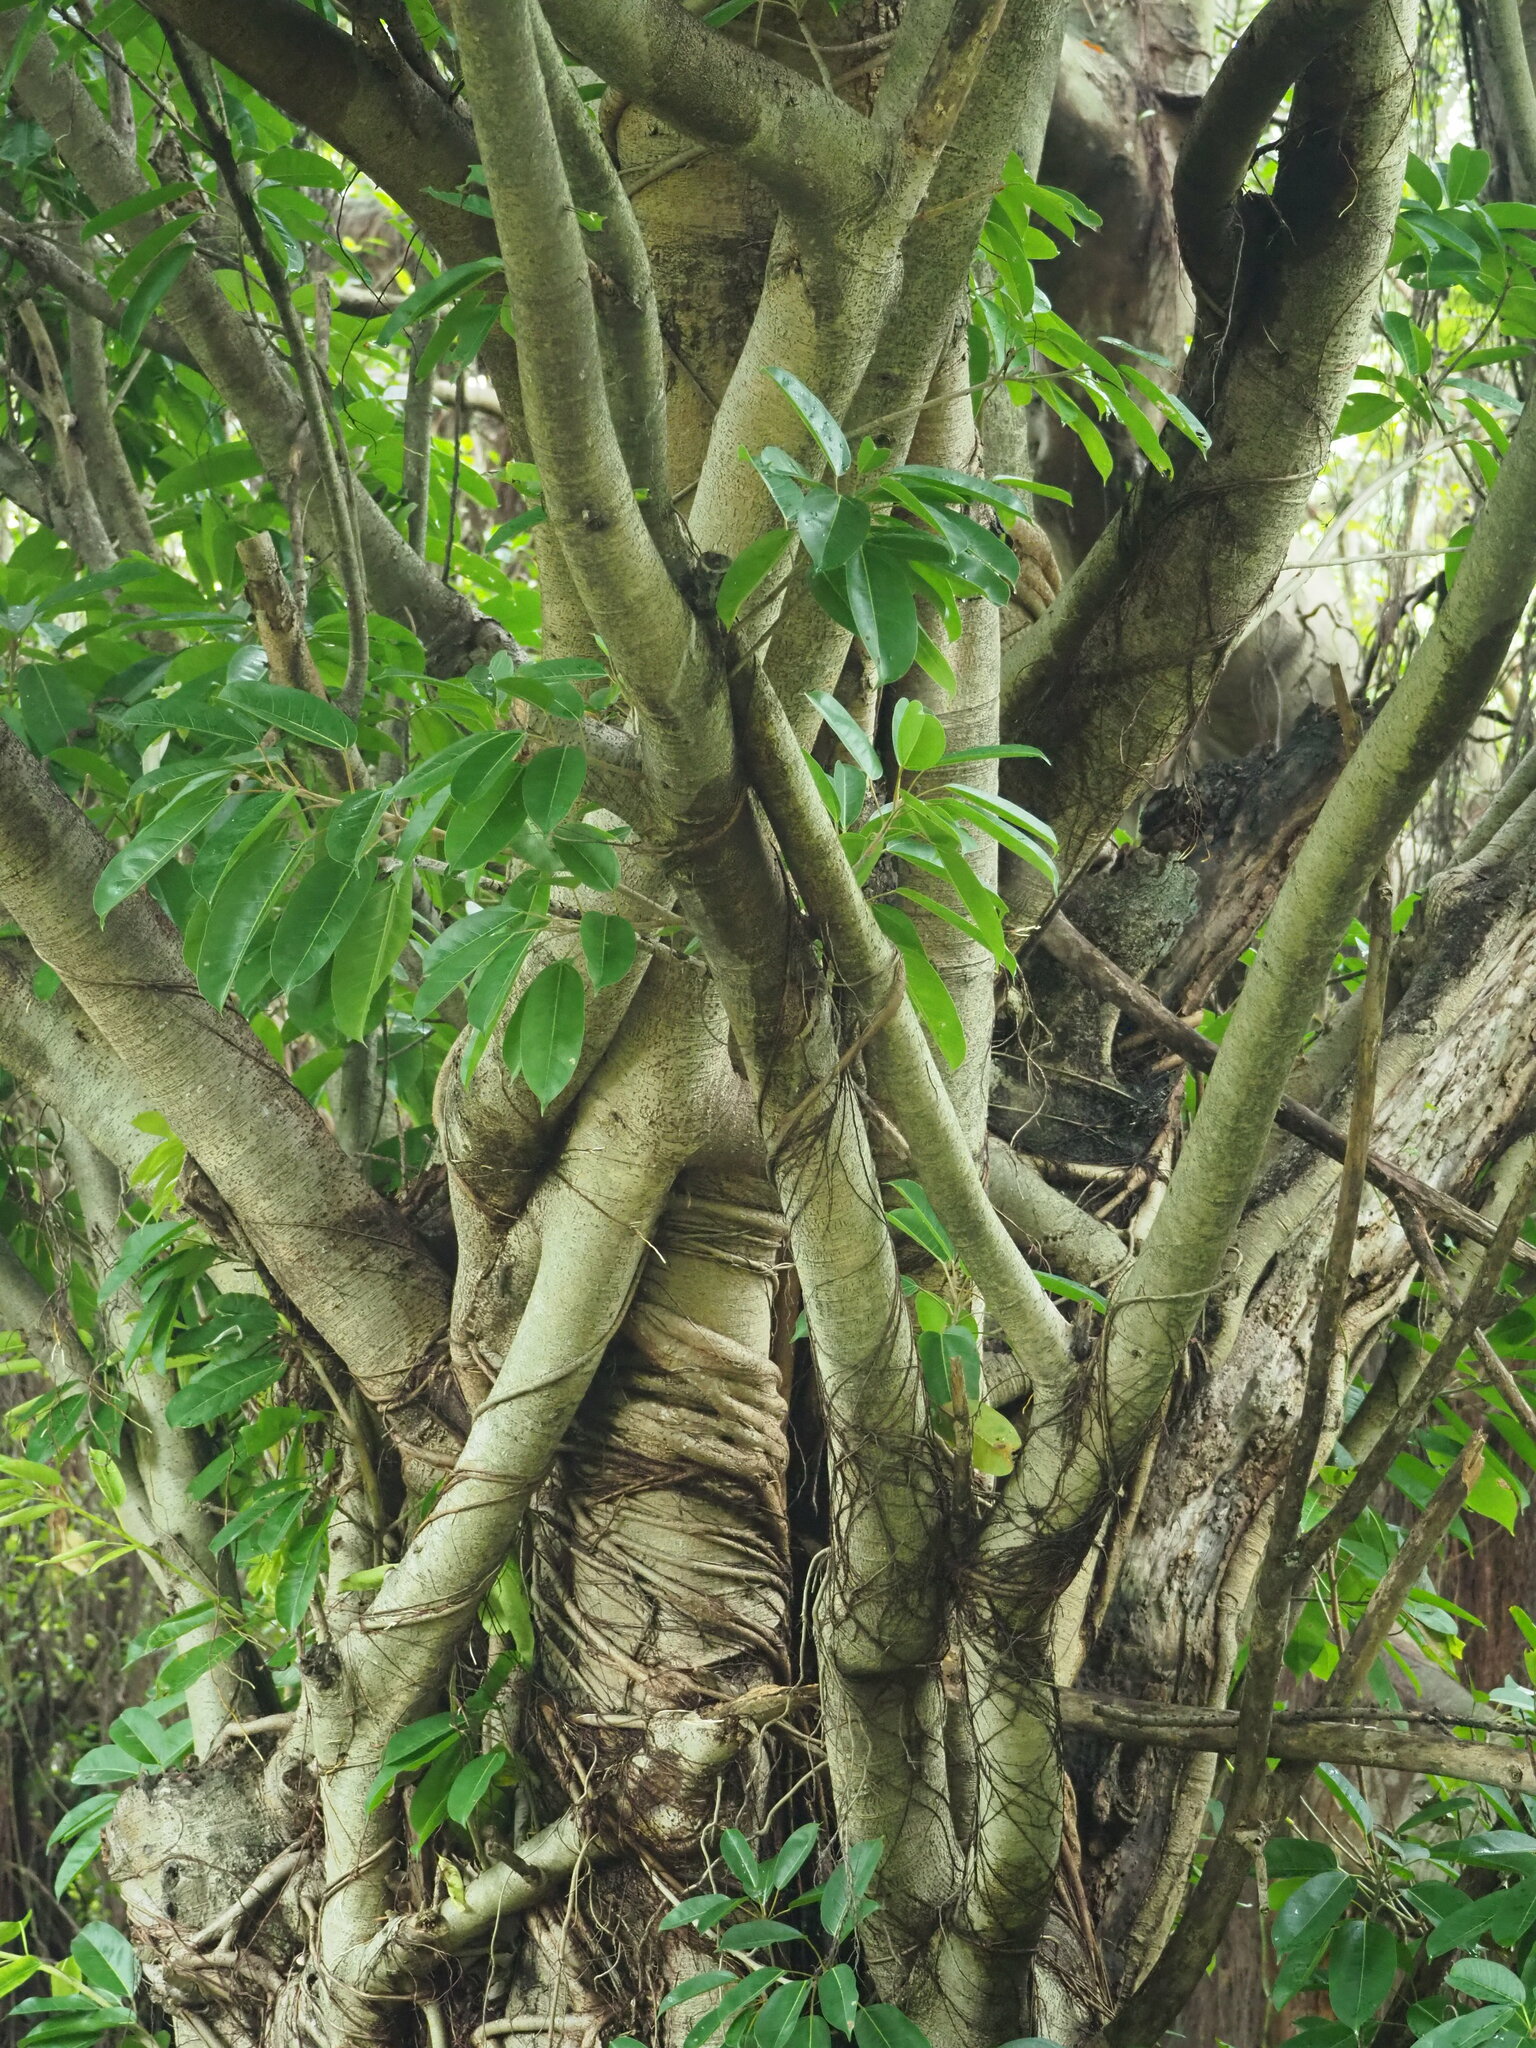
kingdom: Plantae
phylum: Tracheophyta
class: Magnoliopsida
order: Rosales
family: Moraceae
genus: Ficus
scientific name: Ficus caulocarpa
